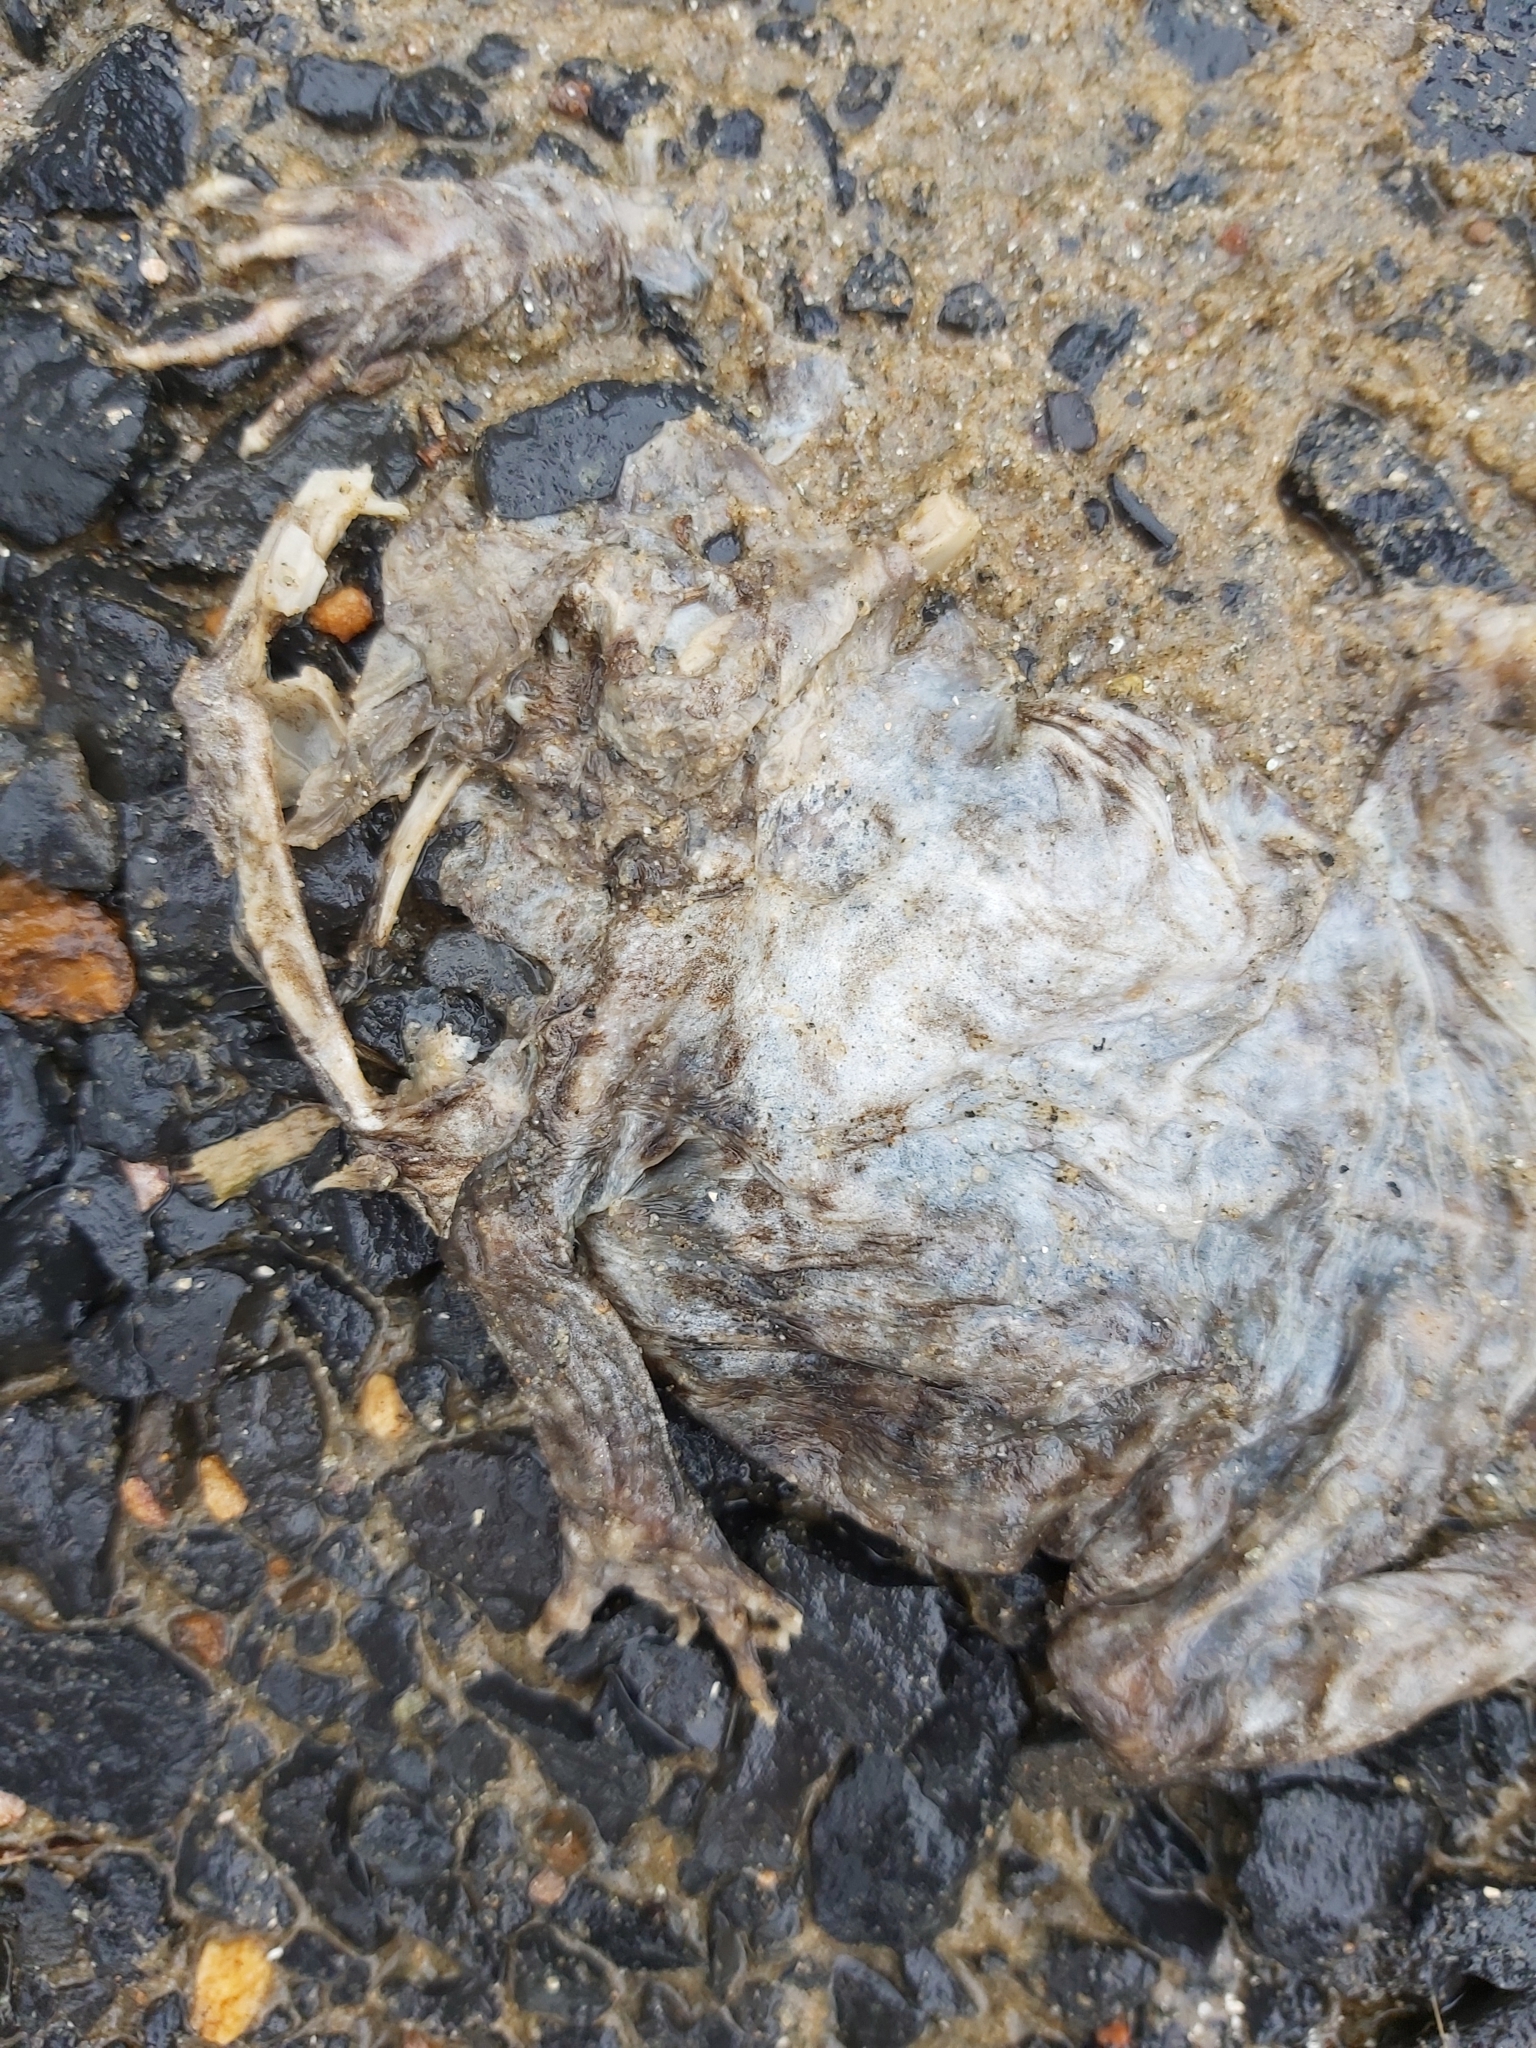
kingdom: Animalia
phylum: Chordata
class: Amphibia
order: Anura
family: Bufonidae
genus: Rhinella
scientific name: Rhinella marina
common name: Cane toad
